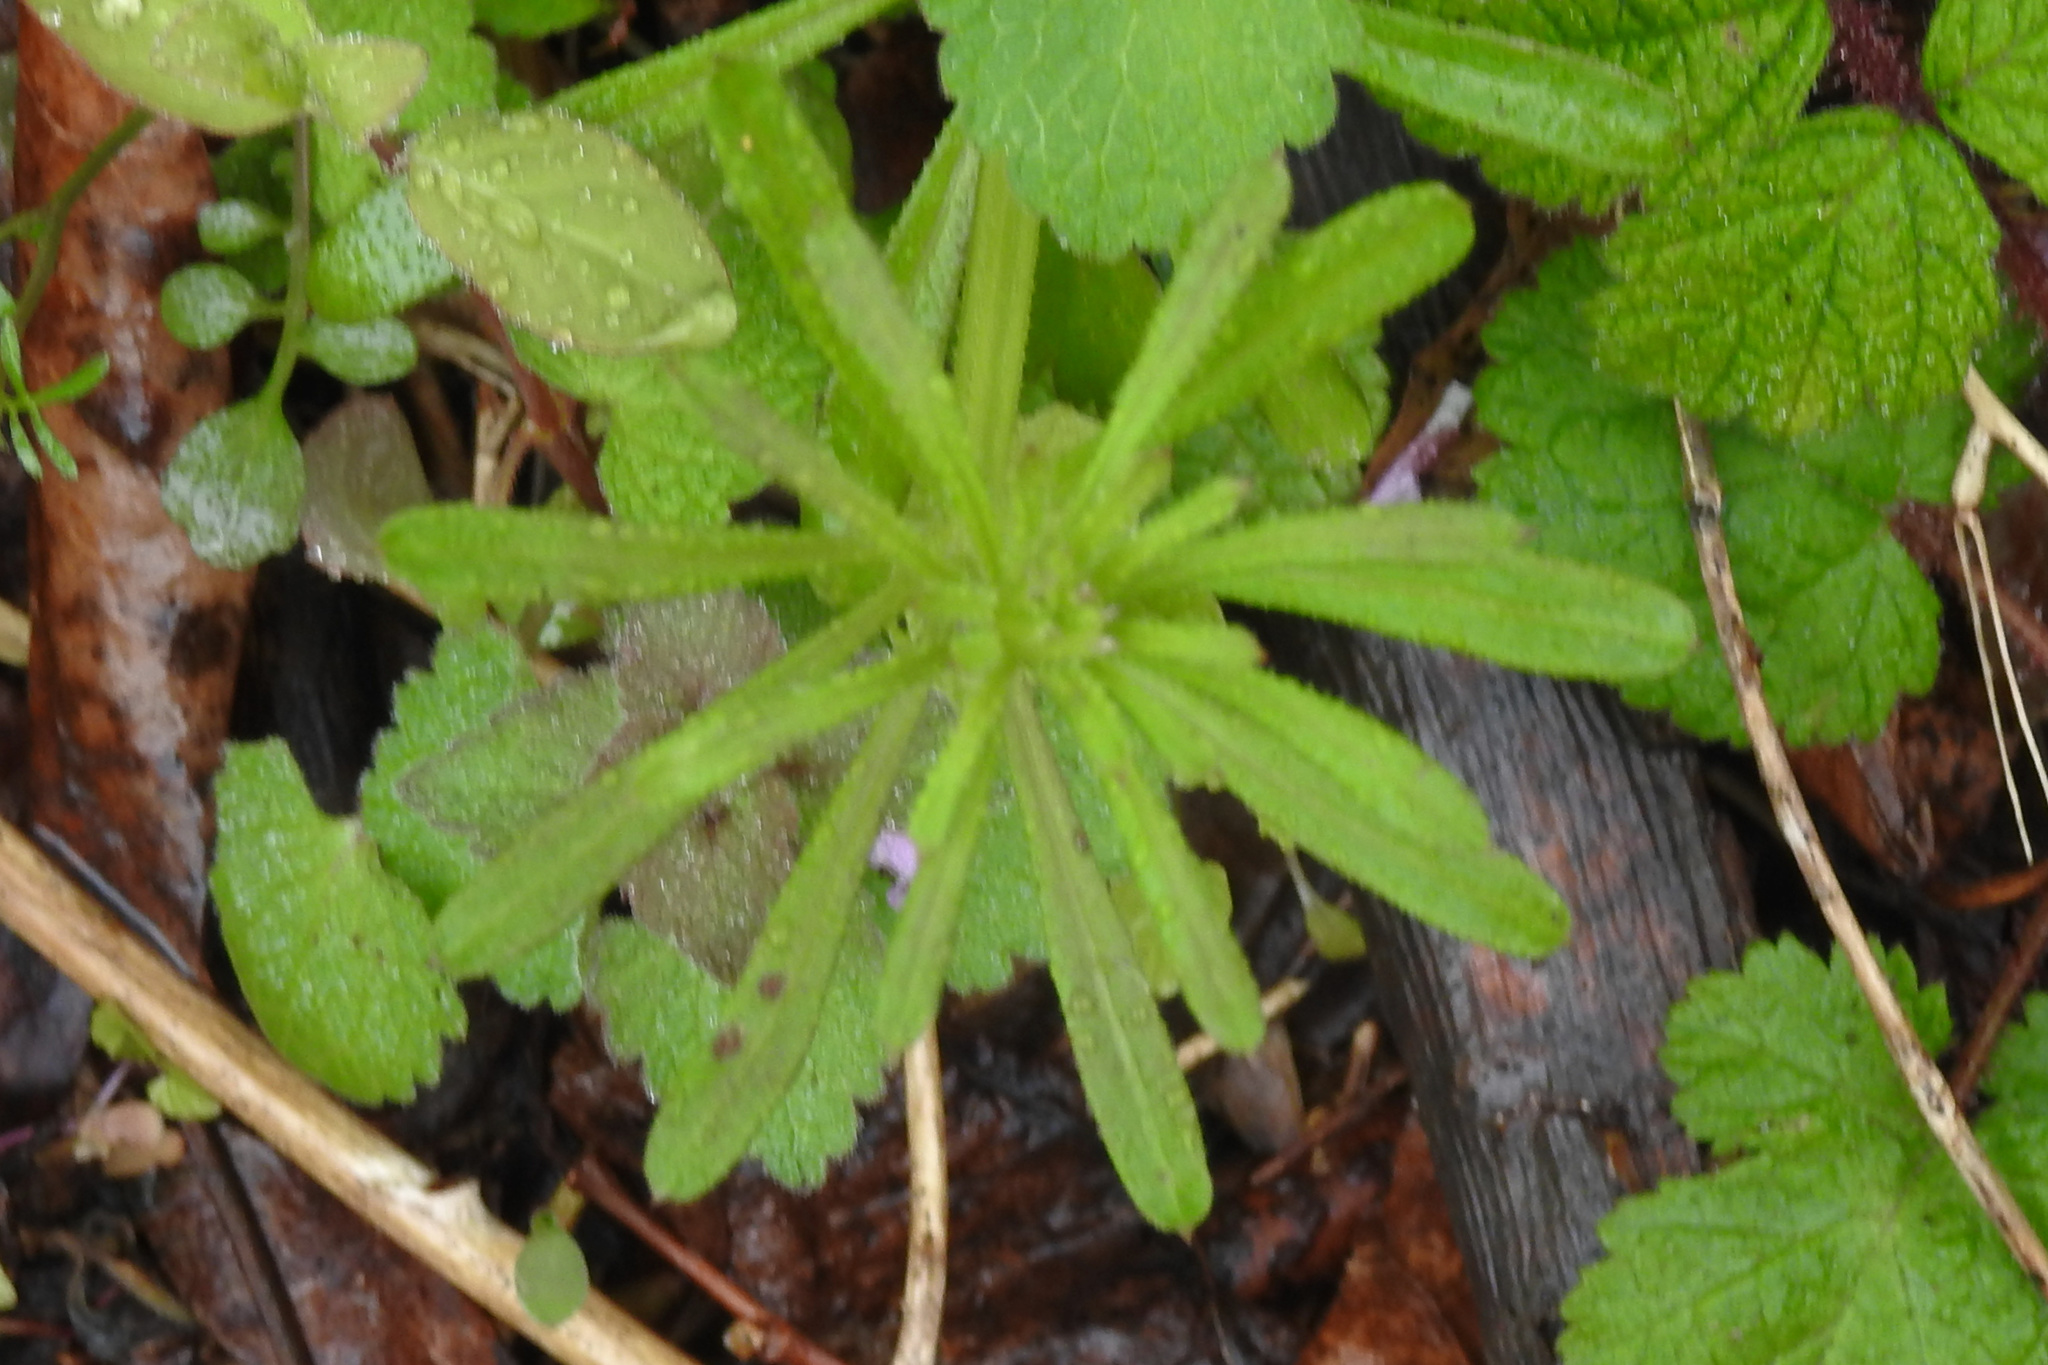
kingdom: Plantae
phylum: Tracheophyta
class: Magnoliopsida
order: Gentianales
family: Rubiaceae
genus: Galium
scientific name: Galium aparine
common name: Cleavers
